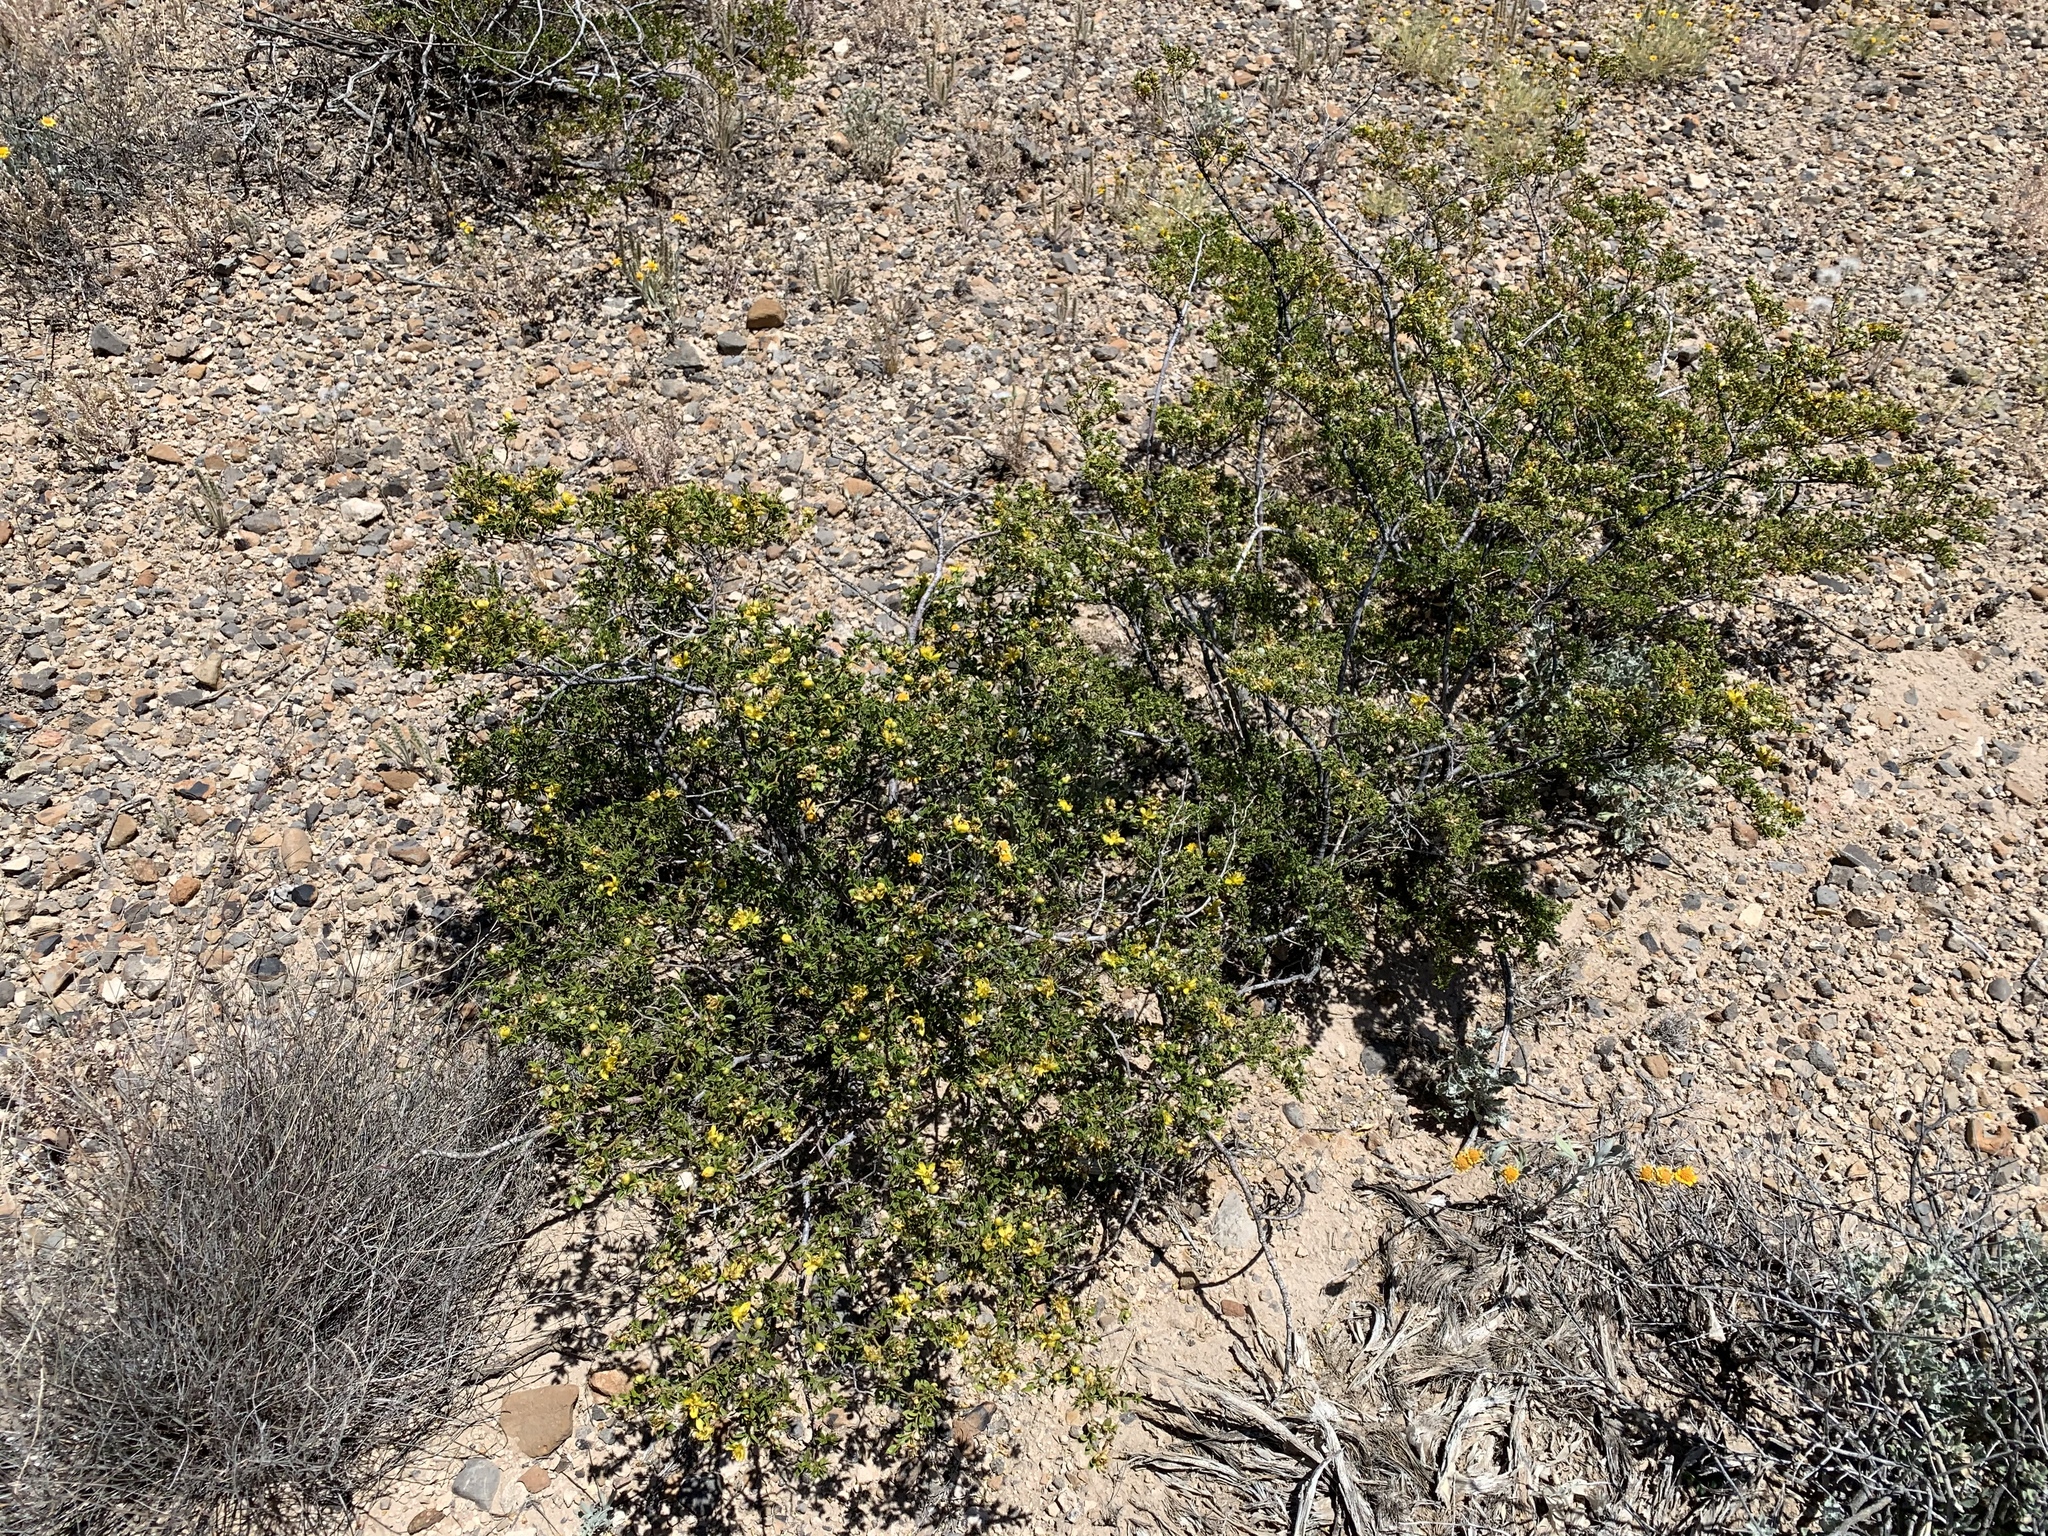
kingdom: Plantae
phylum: Tracheophyta
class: Magnoliopsida
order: Zygophyllales
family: Zygophyllaceae
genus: Larrea
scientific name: Larrea tridentata
